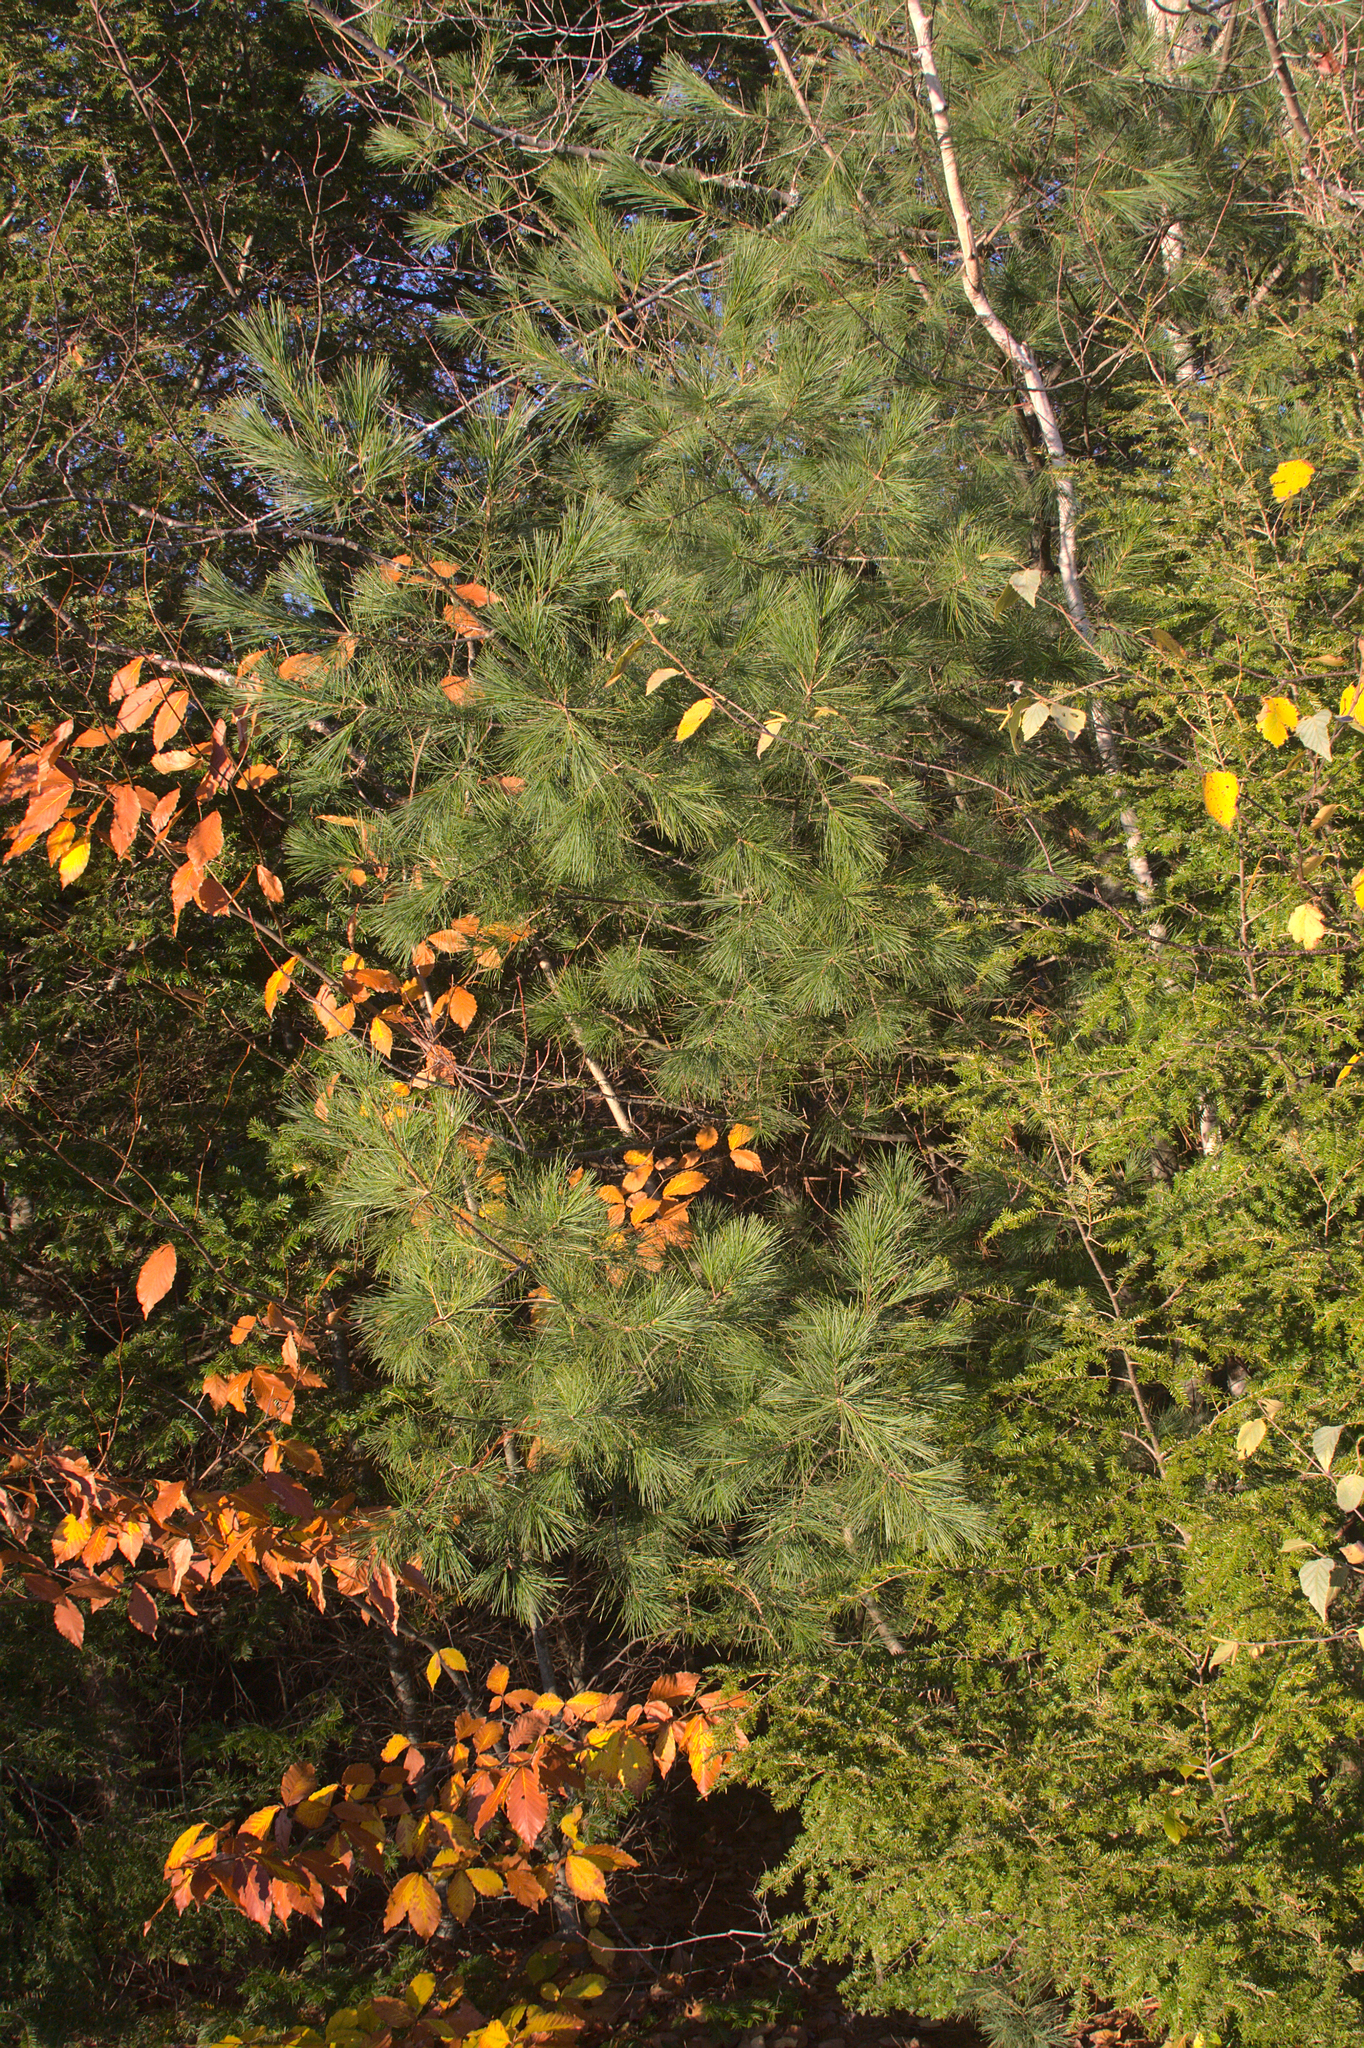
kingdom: Plantae
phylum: Tracheophyta
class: Pinopsida
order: Pinales
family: Pinaceae
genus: Pinus
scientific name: Pinus strobus
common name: Weymouth pine
